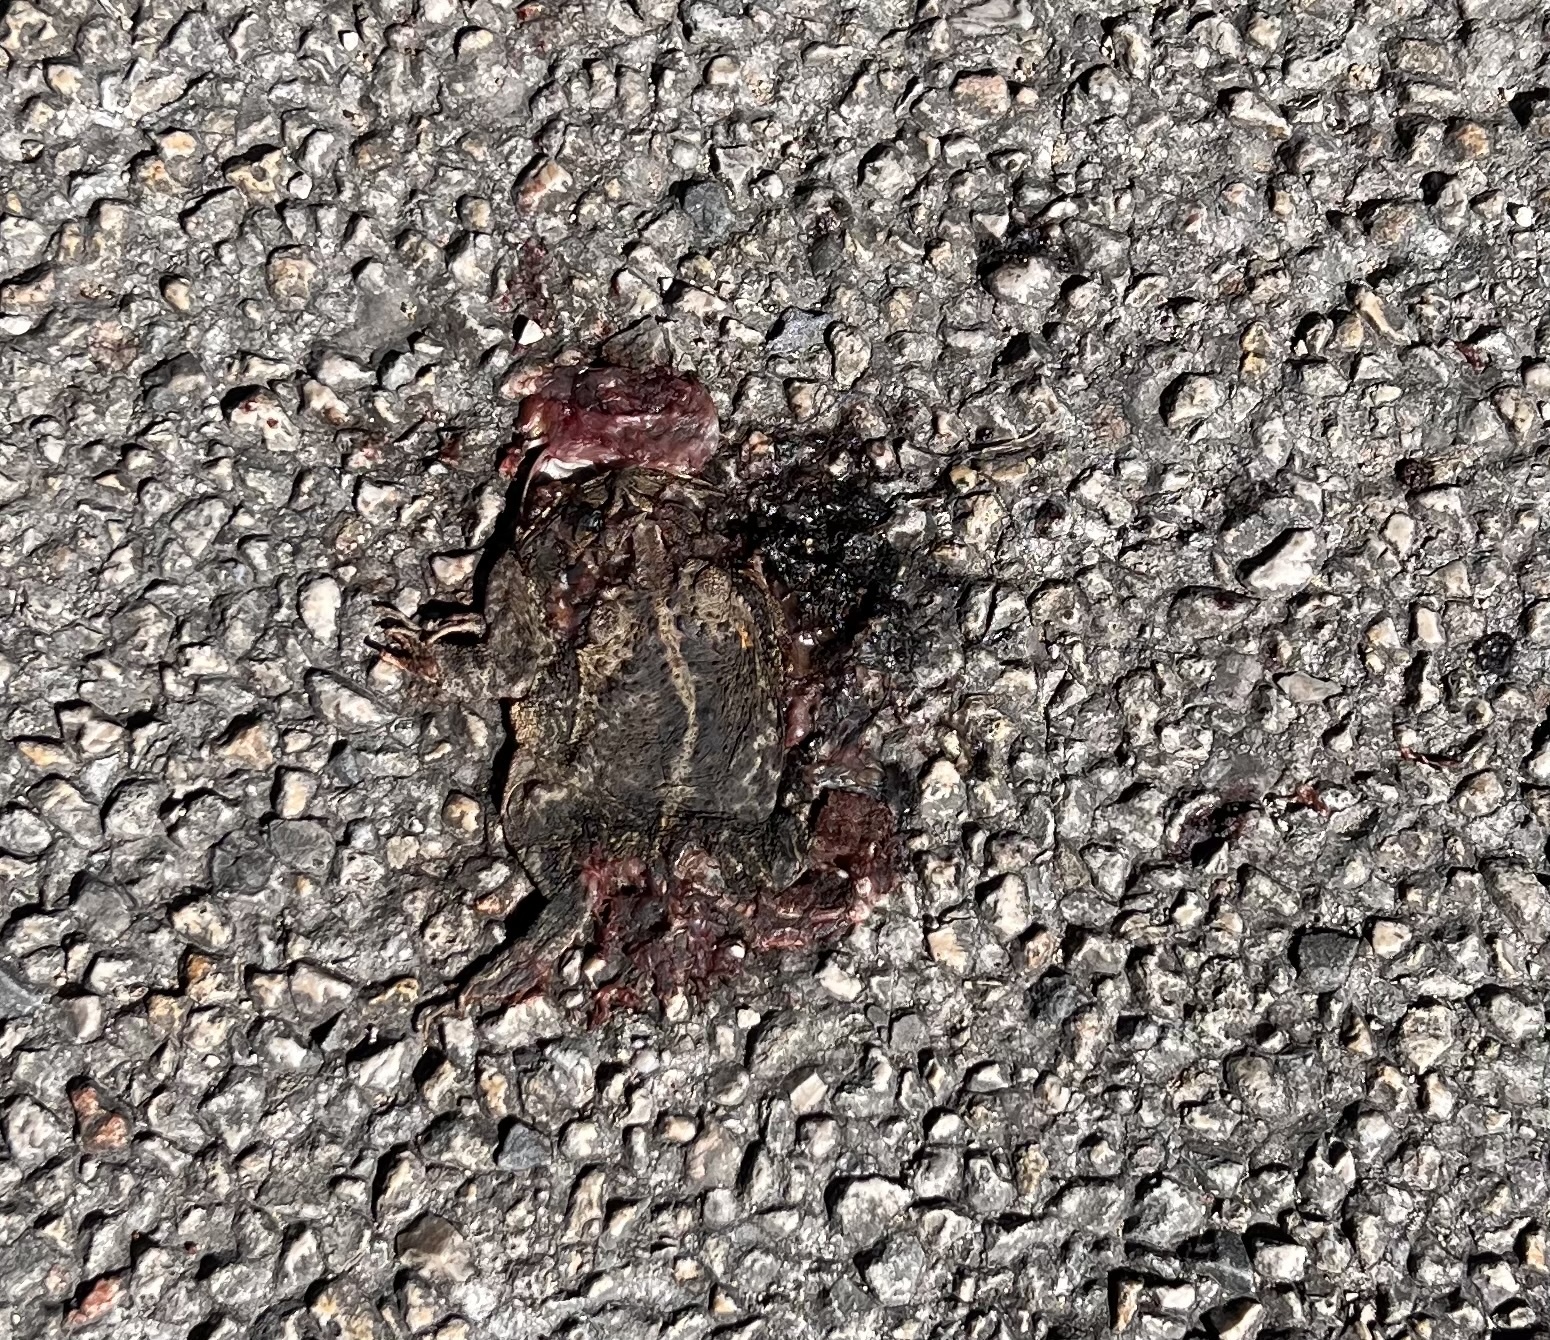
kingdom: Animalia
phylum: Chordata
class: Amphibia
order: Anura
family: Bufonidae
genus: Incilius
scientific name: Incilius nebulifer
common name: Gulf coast toad
